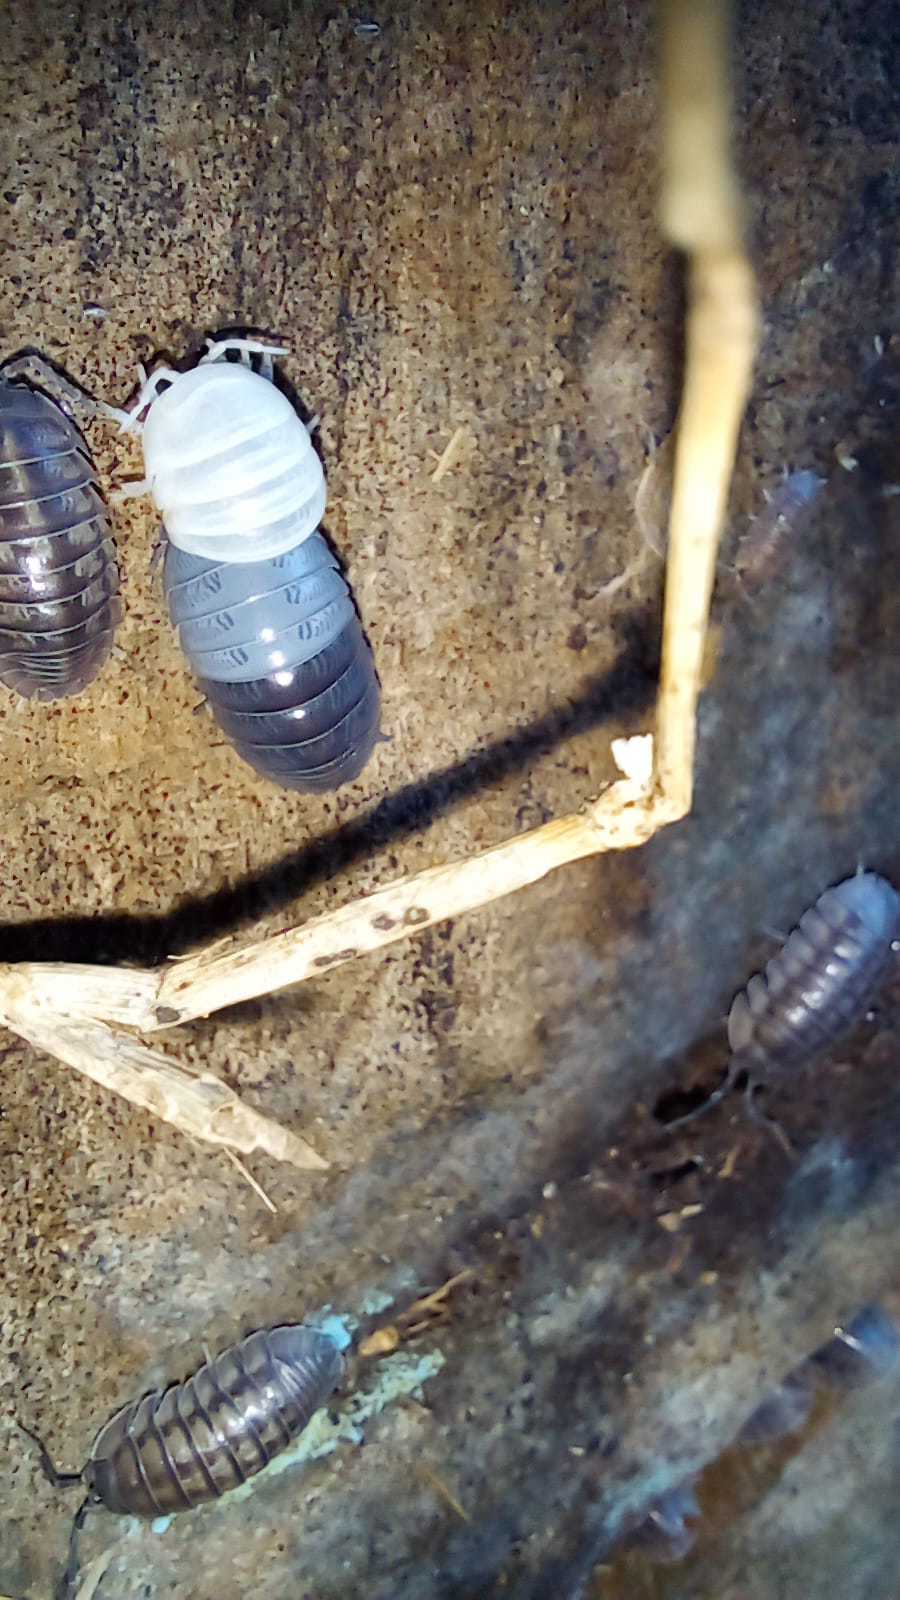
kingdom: Animalia
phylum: Arthropoda
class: Malacostraca
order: Isopoda
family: Armadillidiidae
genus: Armadillidium
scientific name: Armadillidium vulgare
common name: Common pill woodlouse
